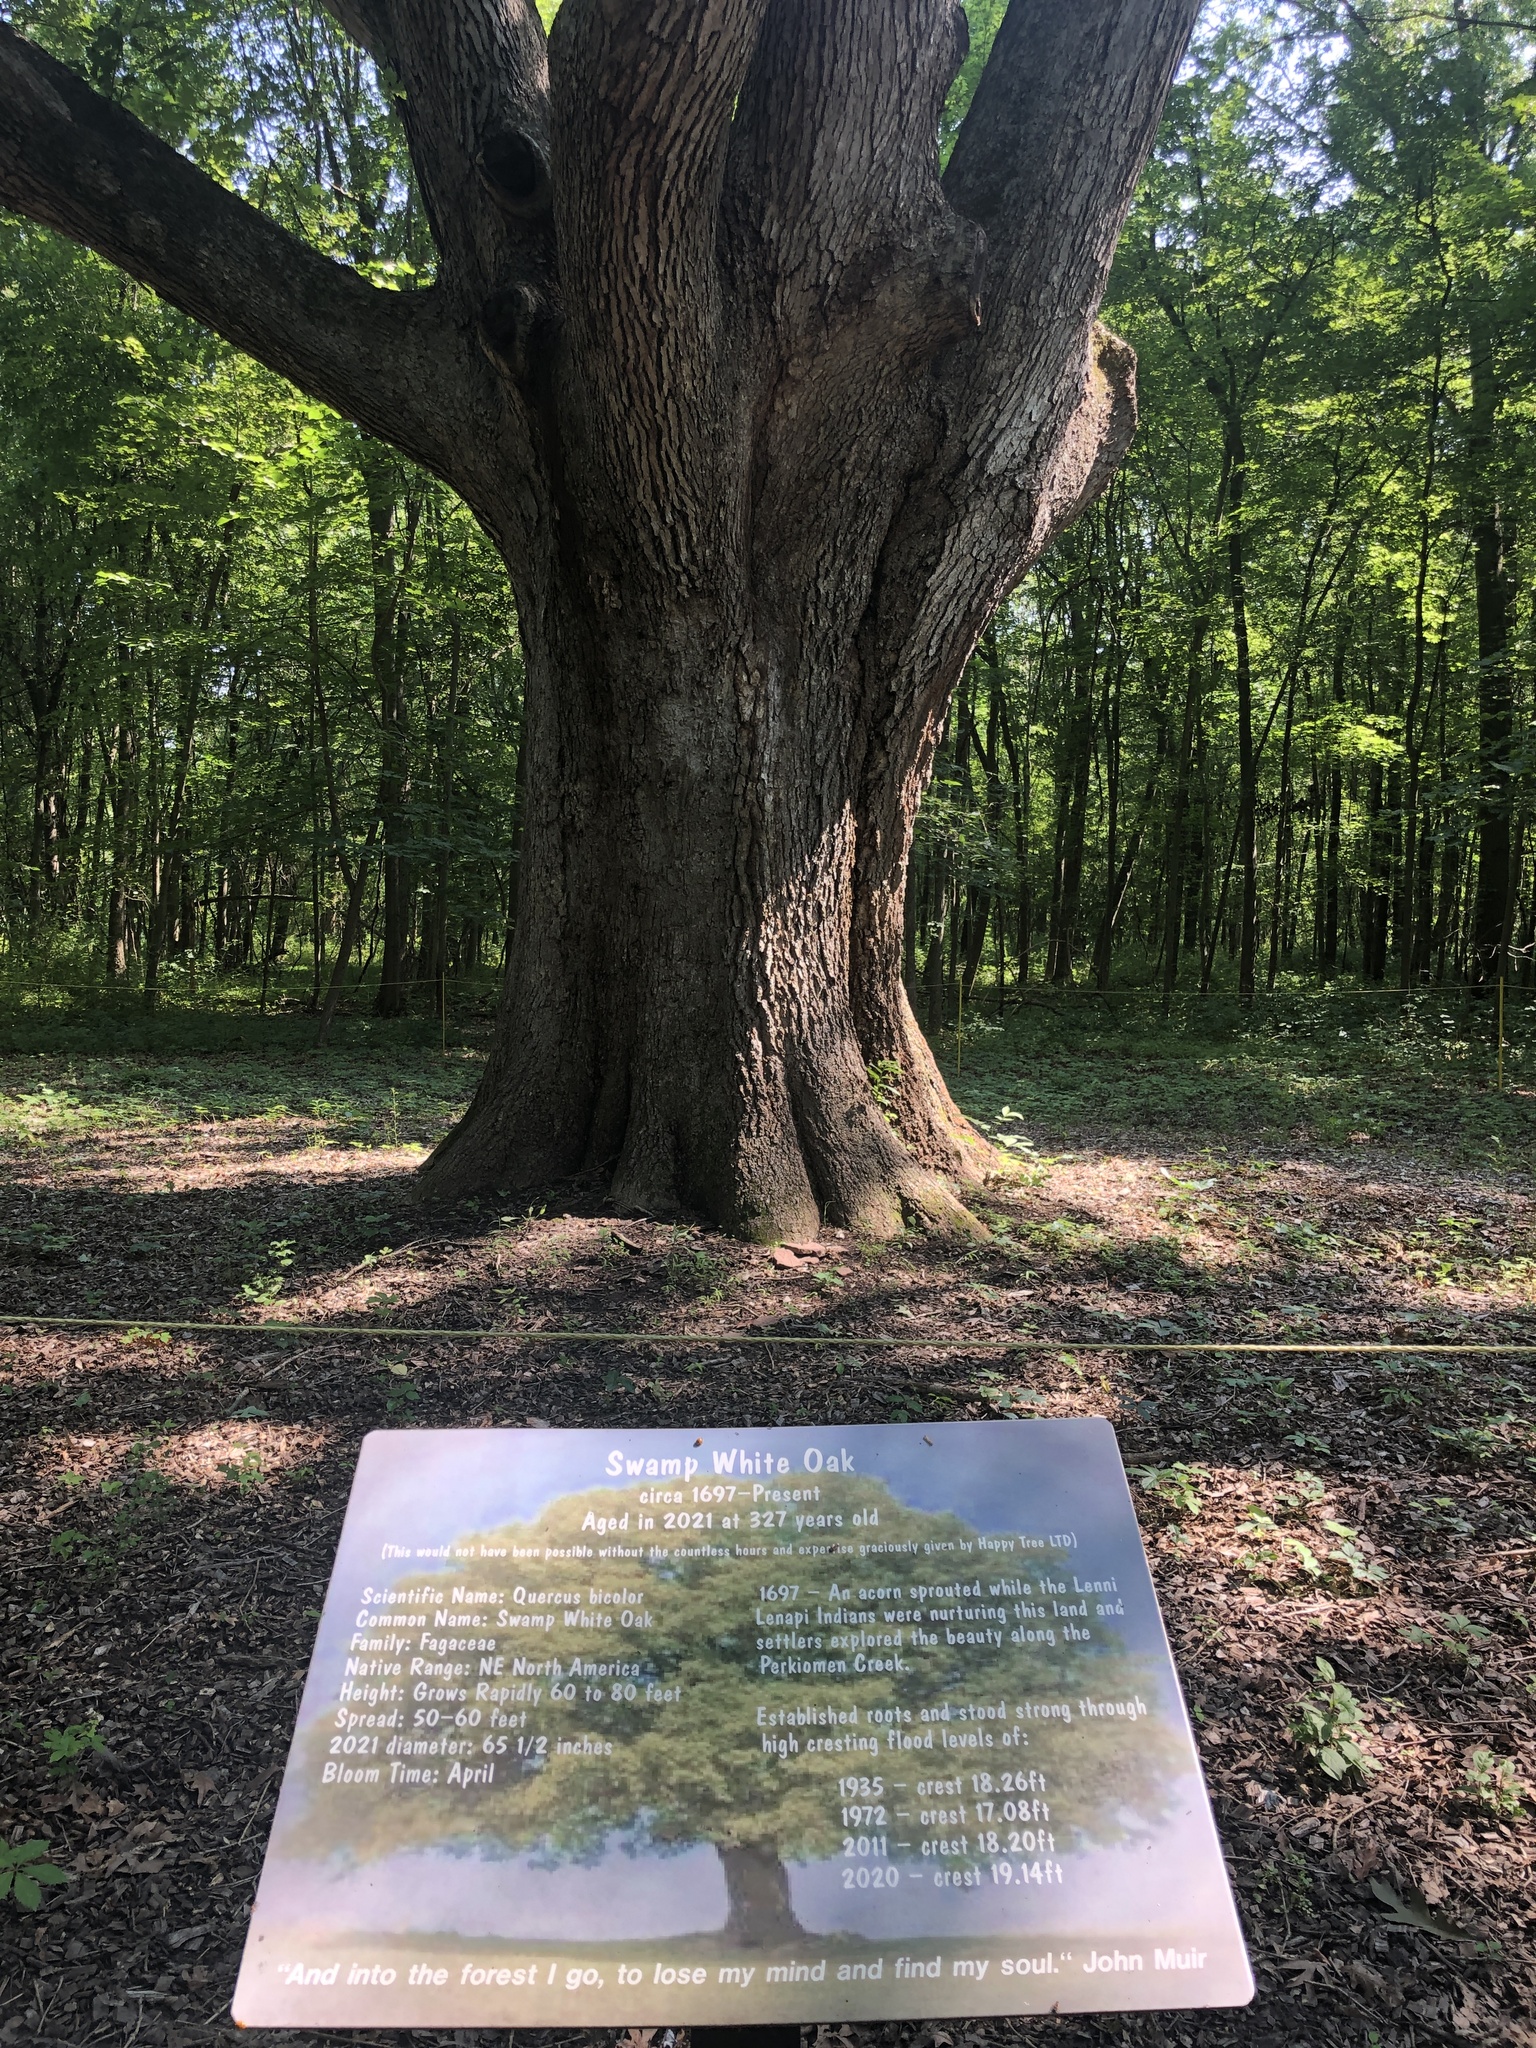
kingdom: Plantae
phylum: Tracheophyta
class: Magnoliopsida
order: Fagales
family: Fagaceae
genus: Quercus
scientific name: Quercus alba
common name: White oak
